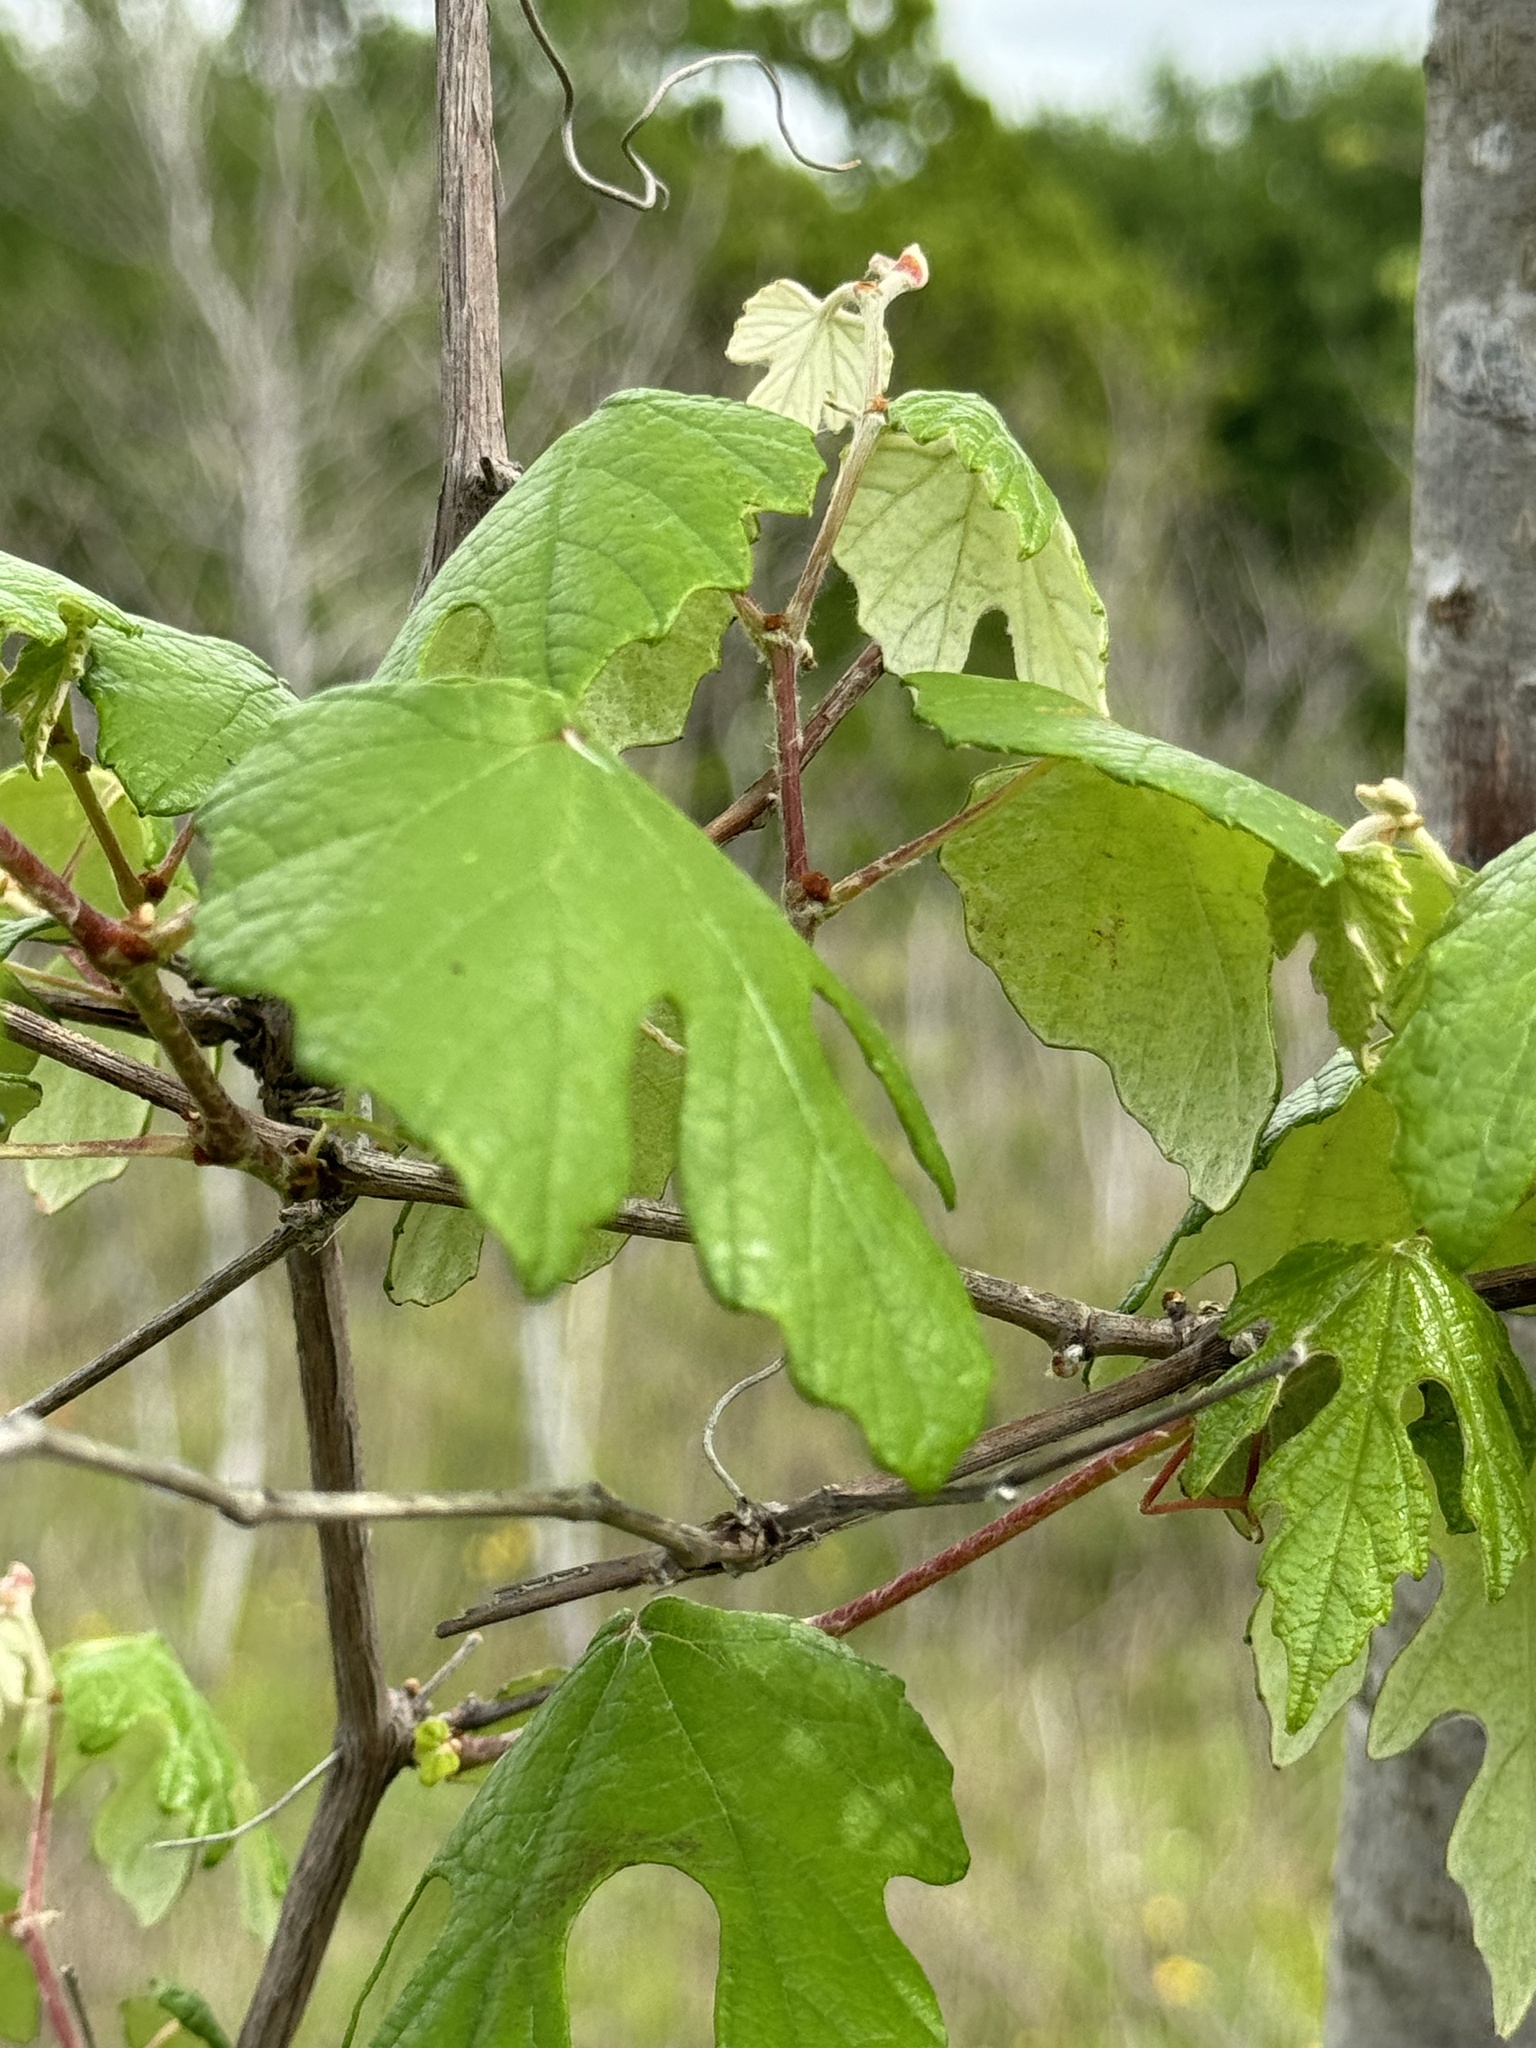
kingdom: Plantae
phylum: Tracheophyta
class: Magnoliopsida
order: Vitales
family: Vitaceae
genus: Vitis
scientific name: Vitis mustangensis
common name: Mustang grape
